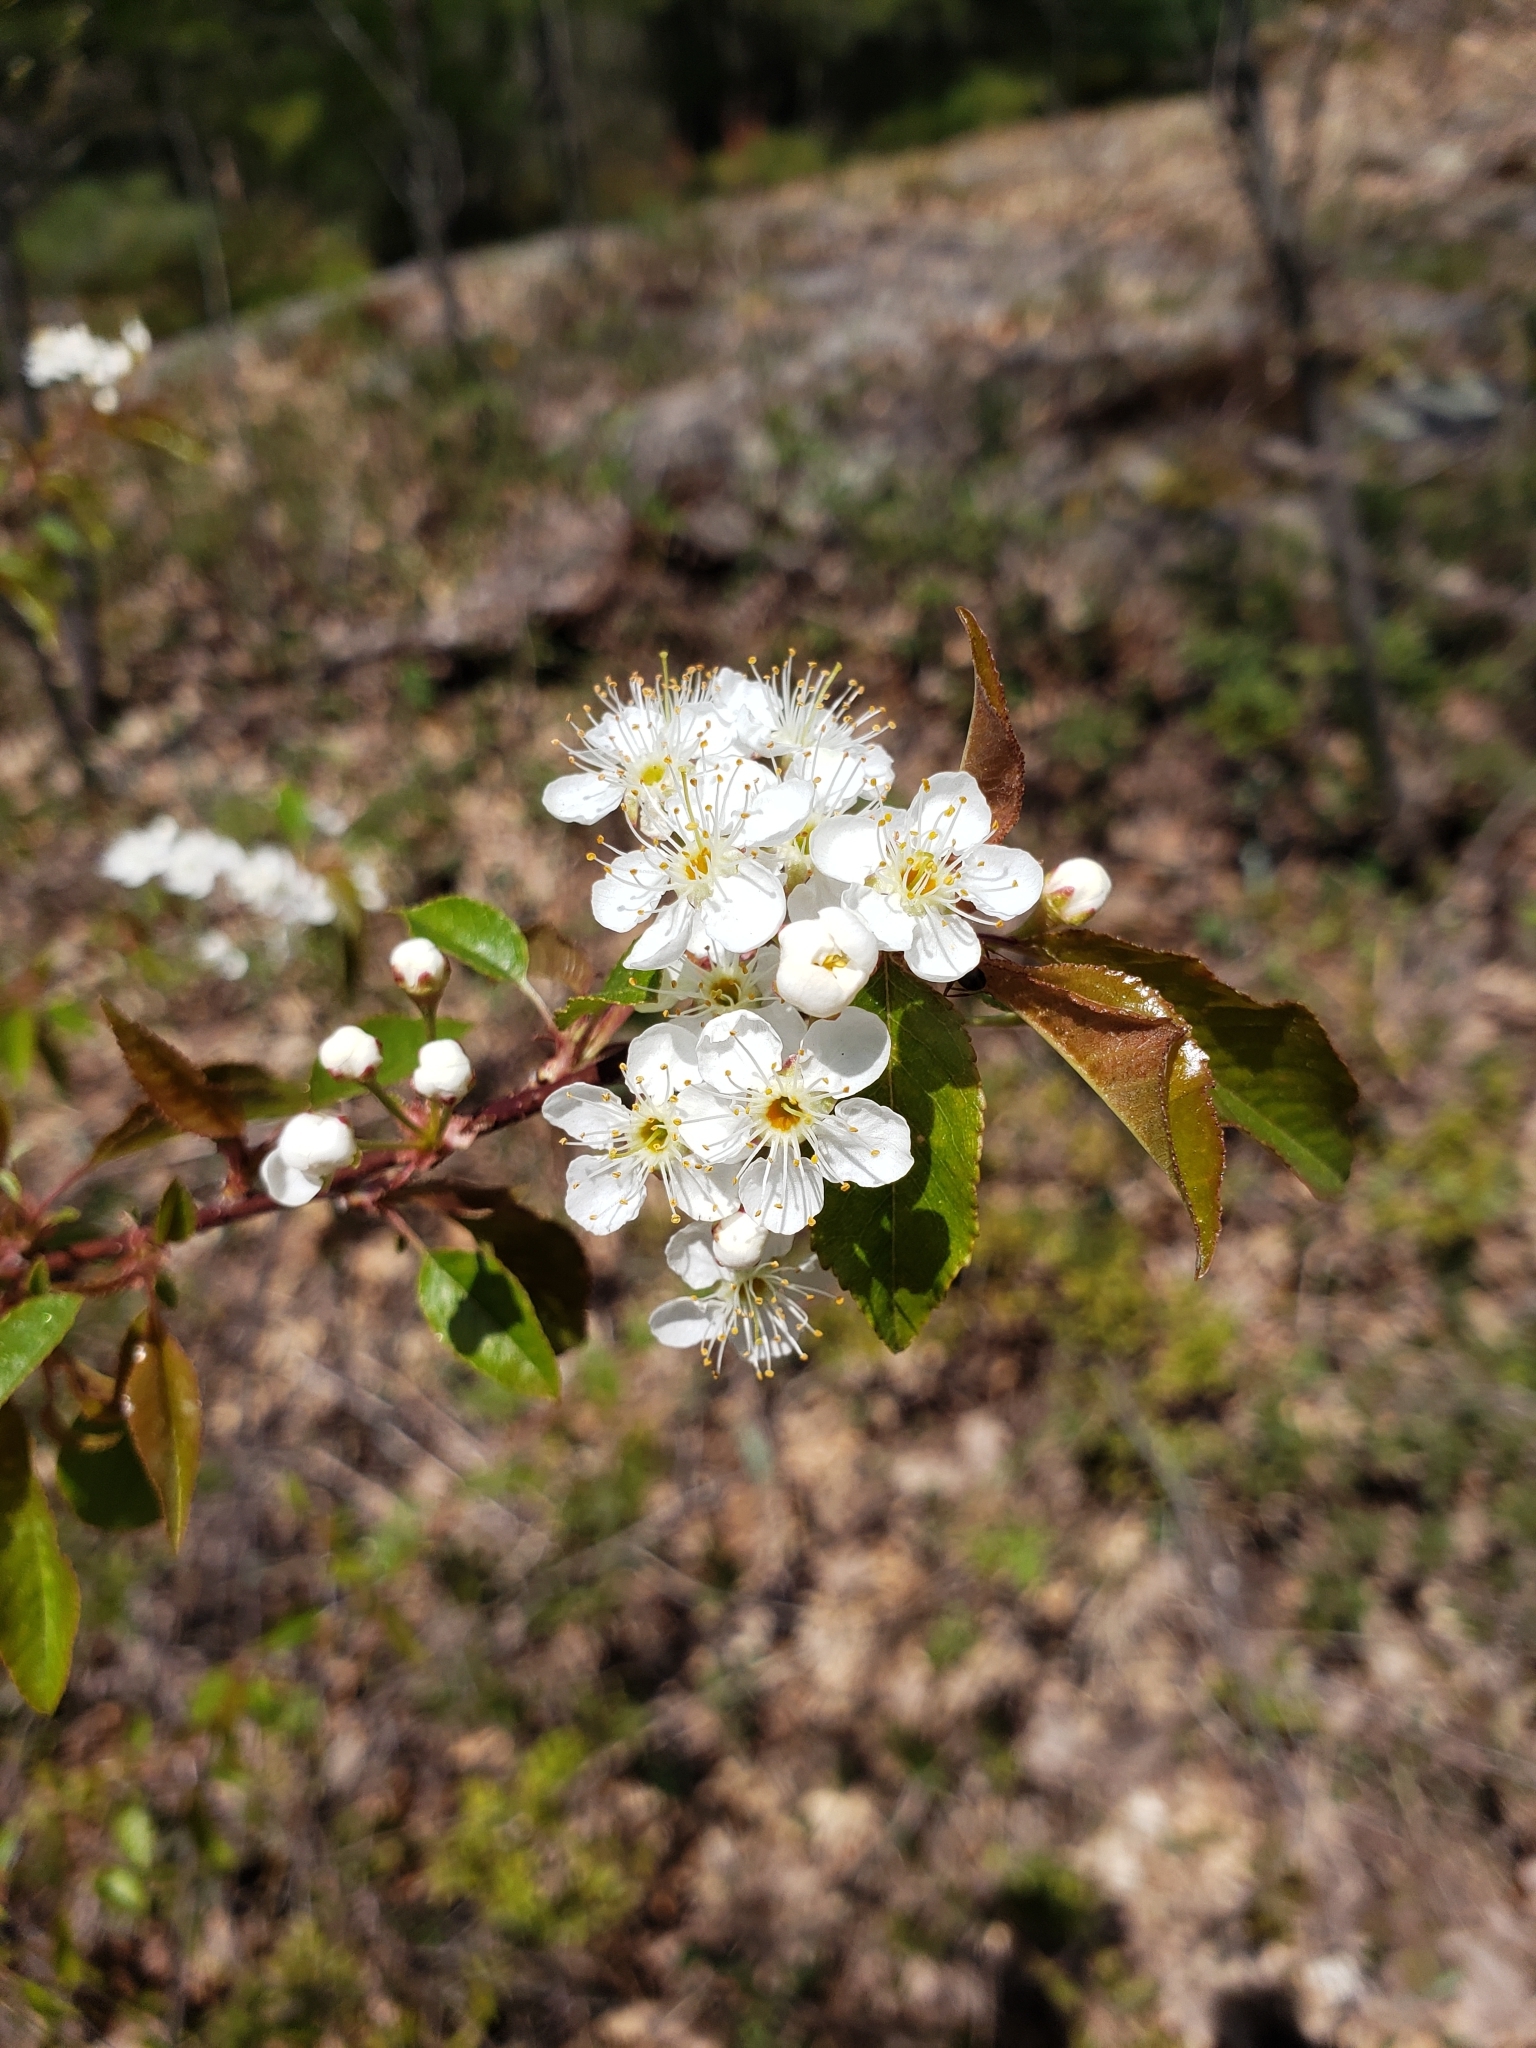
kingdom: Plantae
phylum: Tracheophyta
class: Magnoliopsida
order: Rosales
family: Rosaceae
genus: Prunus
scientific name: Prunus pensylvanica
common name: Pin cherry
